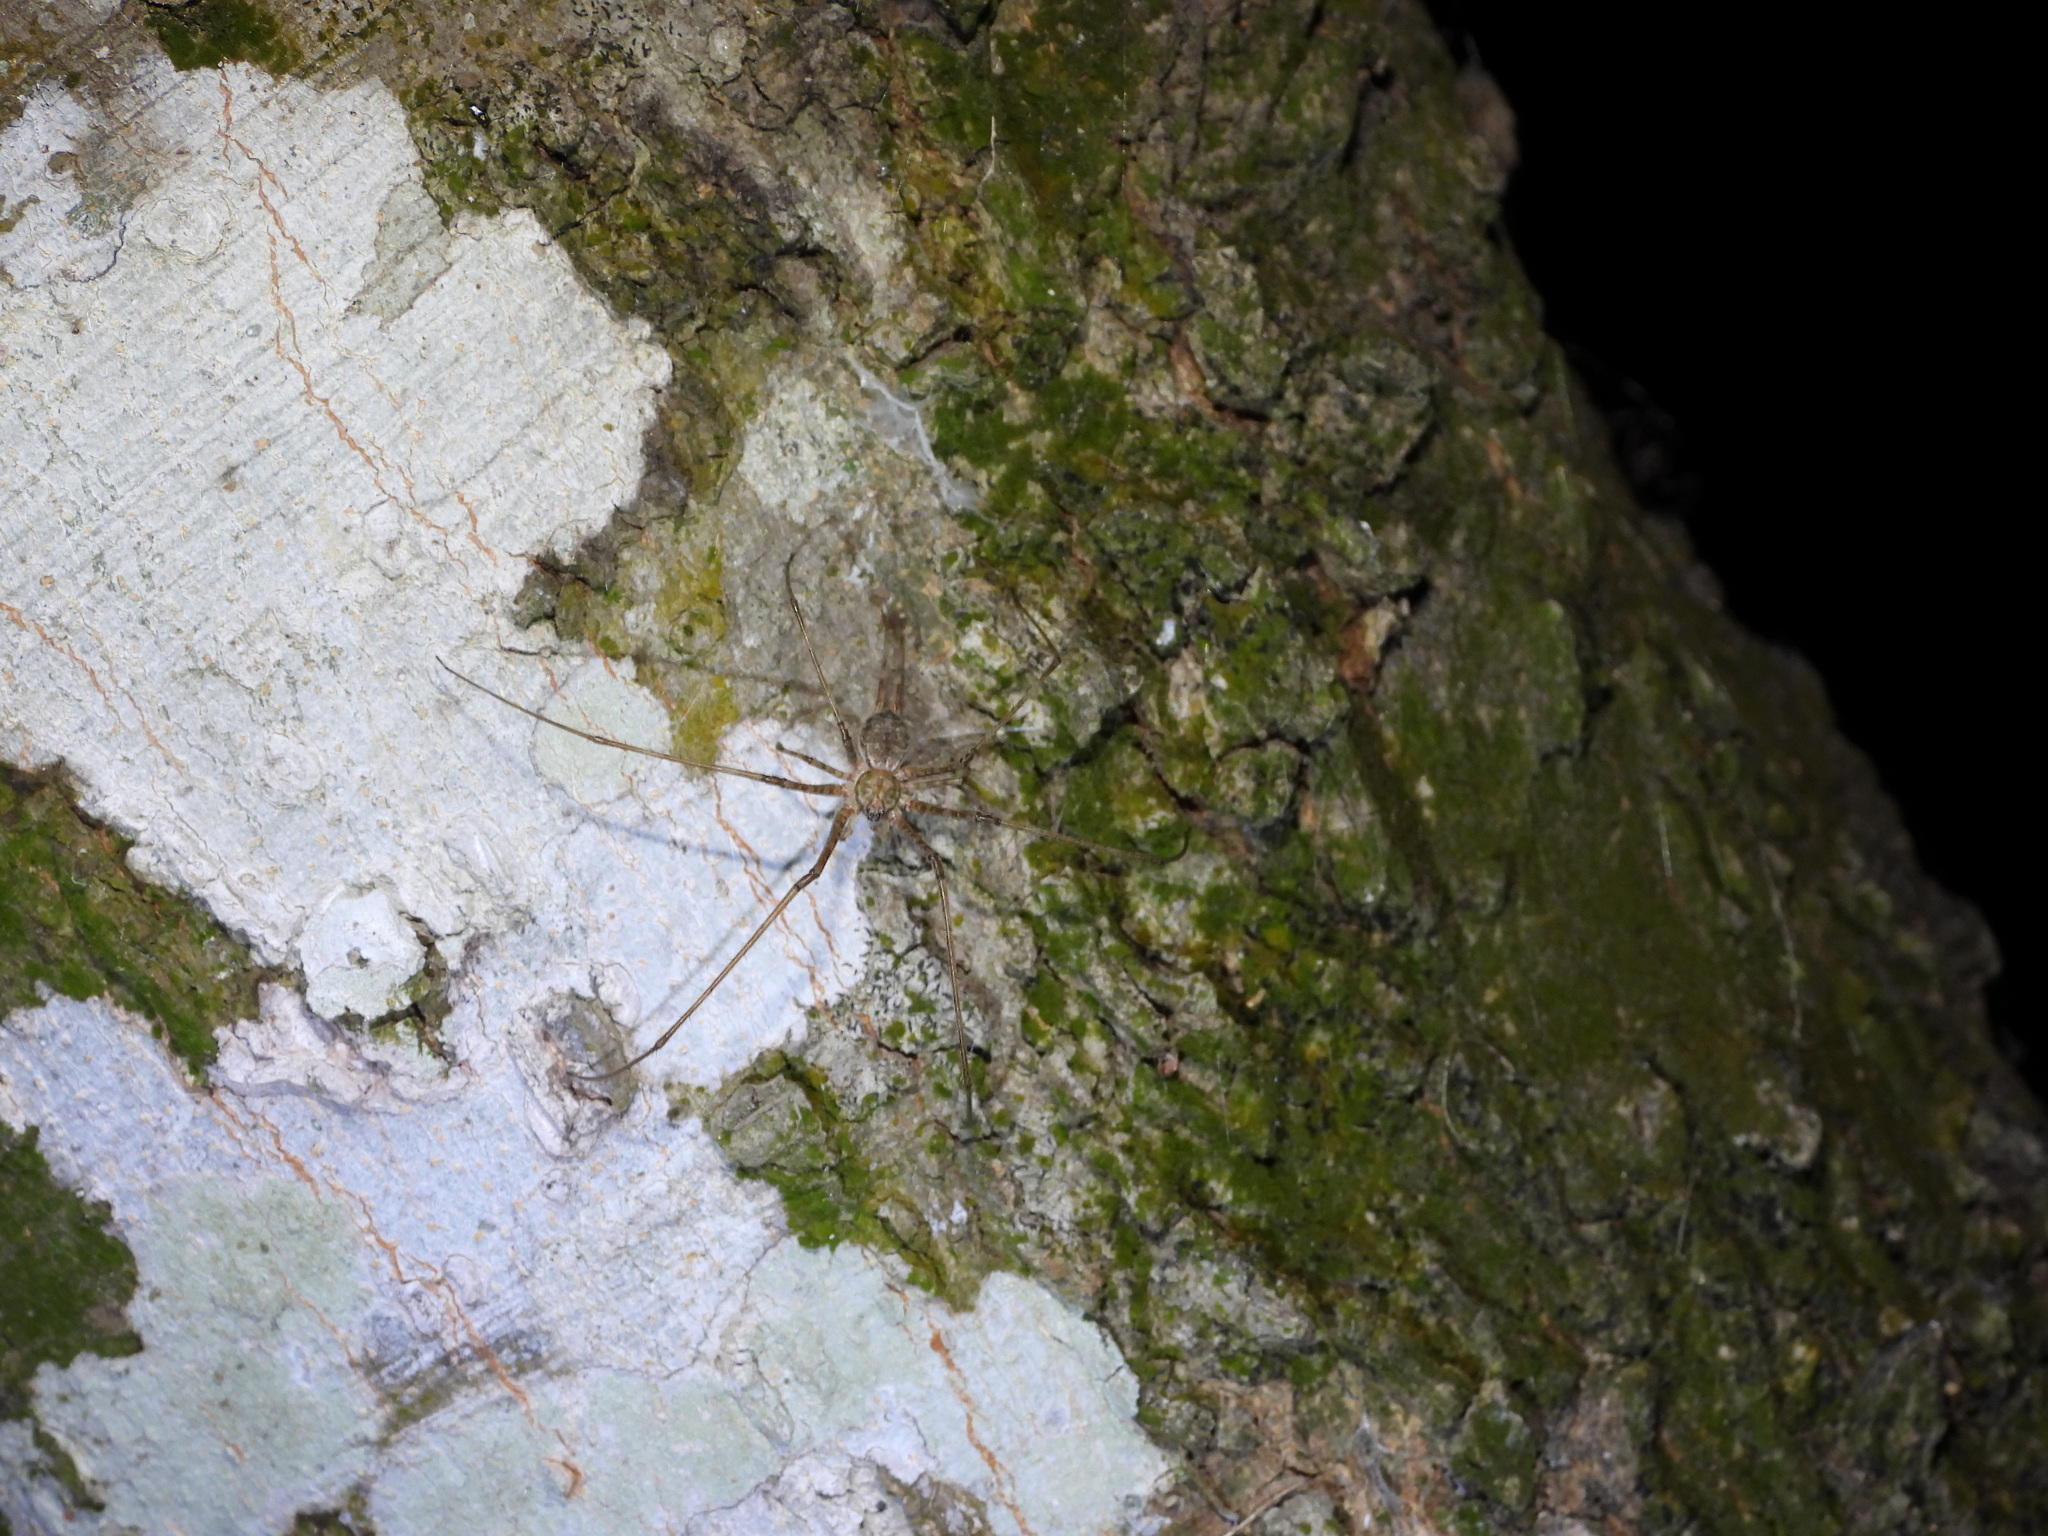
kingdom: Animalia
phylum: Arthropoda
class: Arachnida
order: Araneae
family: Hersiliidae
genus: Neotama
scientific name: Neotama mexicana
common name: Tree trunk spiders
